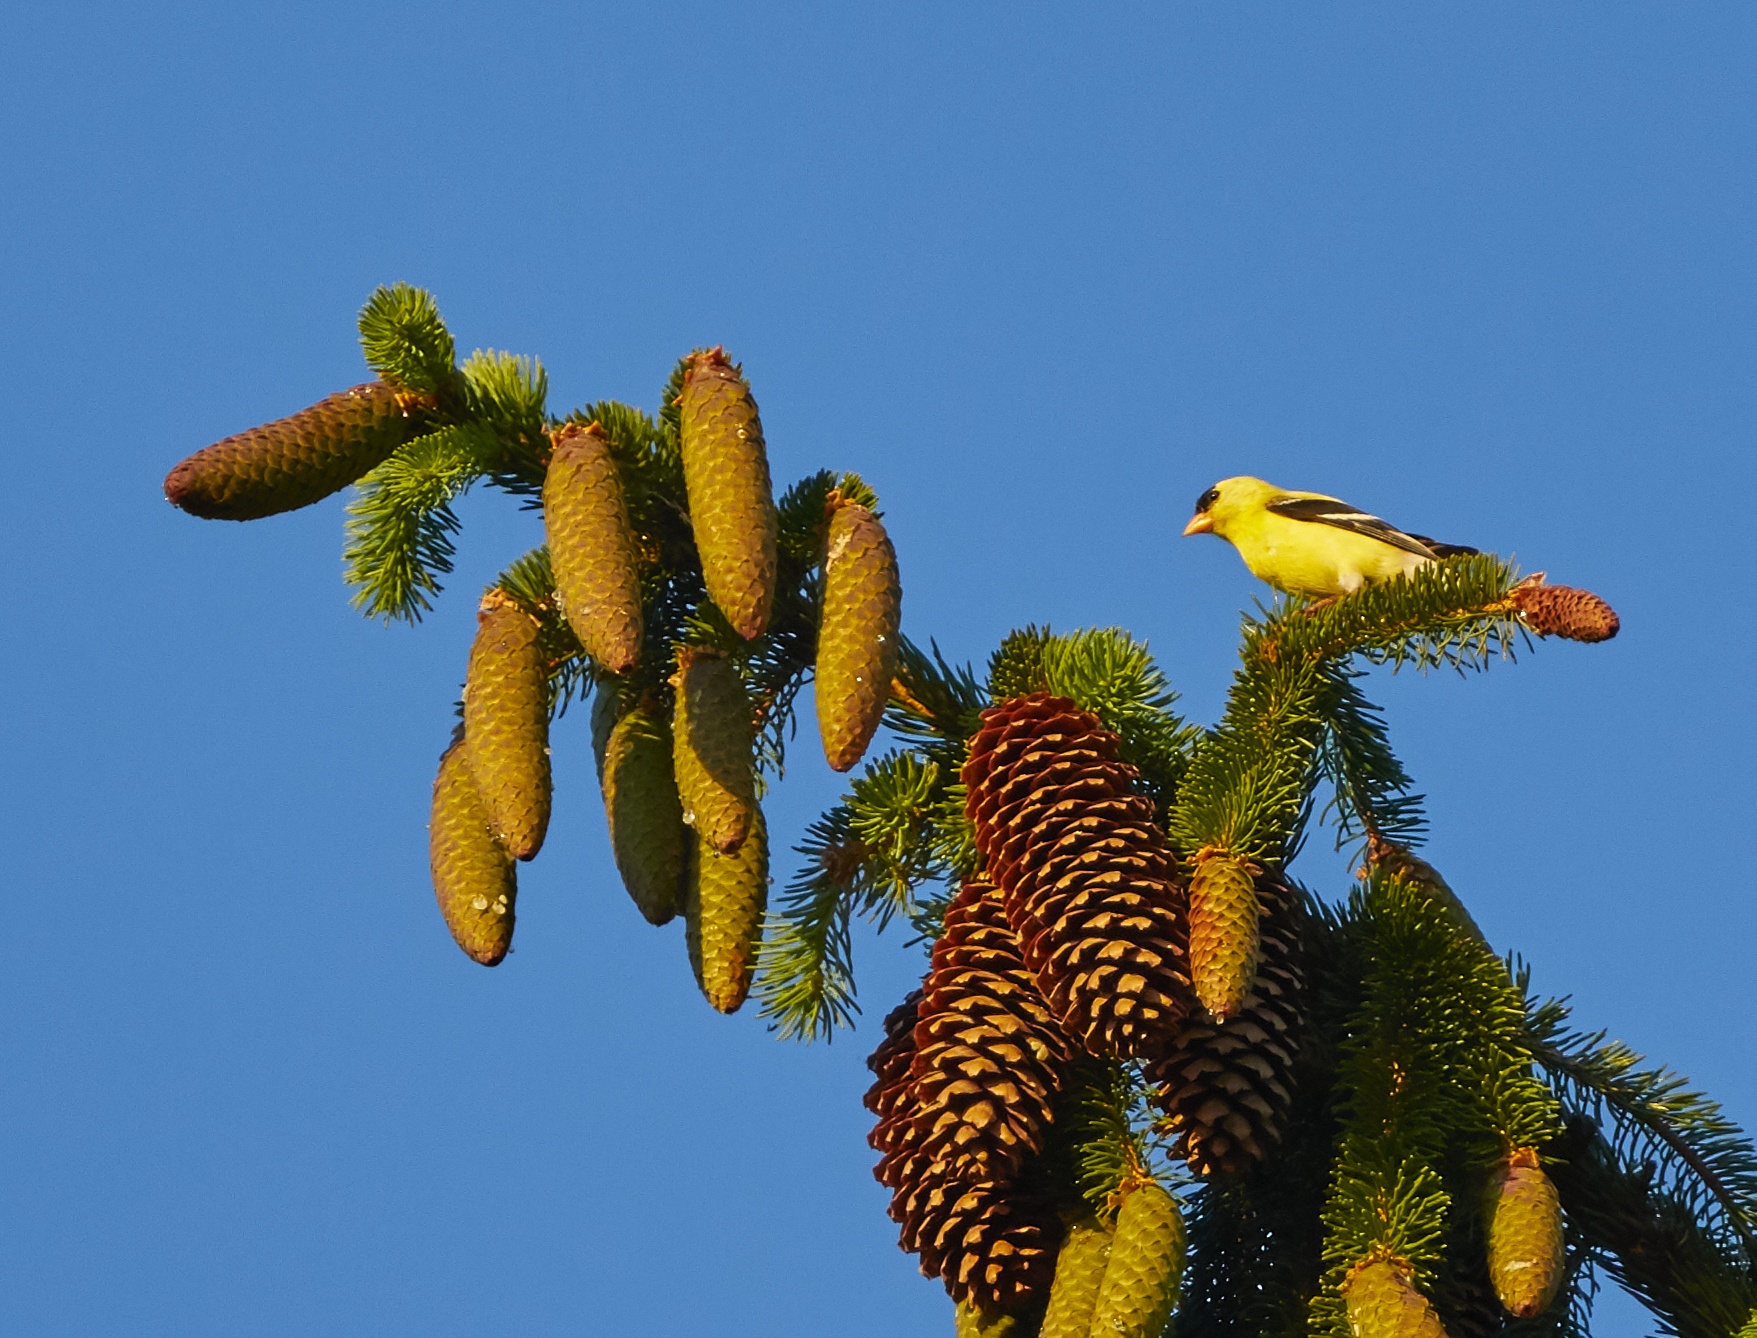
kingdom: Animalia
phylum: Chordata
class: Aves
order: Passeriformes
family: Fringillidae
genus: Spinus
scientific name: Spinus tristis
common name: American goldfinch
